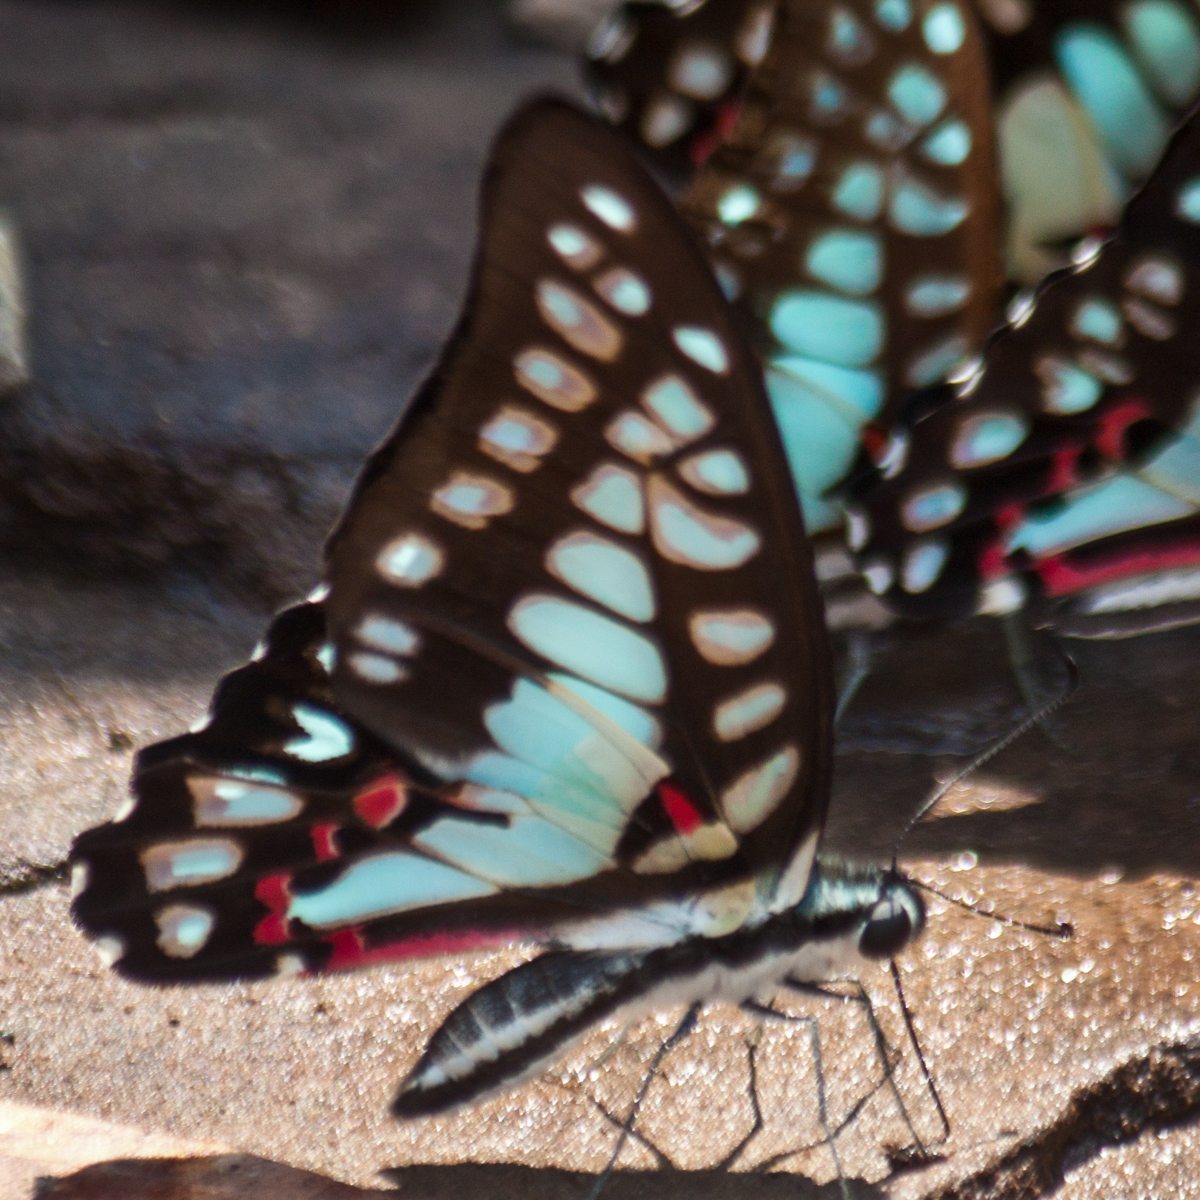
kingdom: Animalia
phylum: Arthropoda
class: Insecta
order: Lepidoptera
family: Papilionidae
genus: Graphium
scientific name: Graphium eurypylus
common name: Great jay
